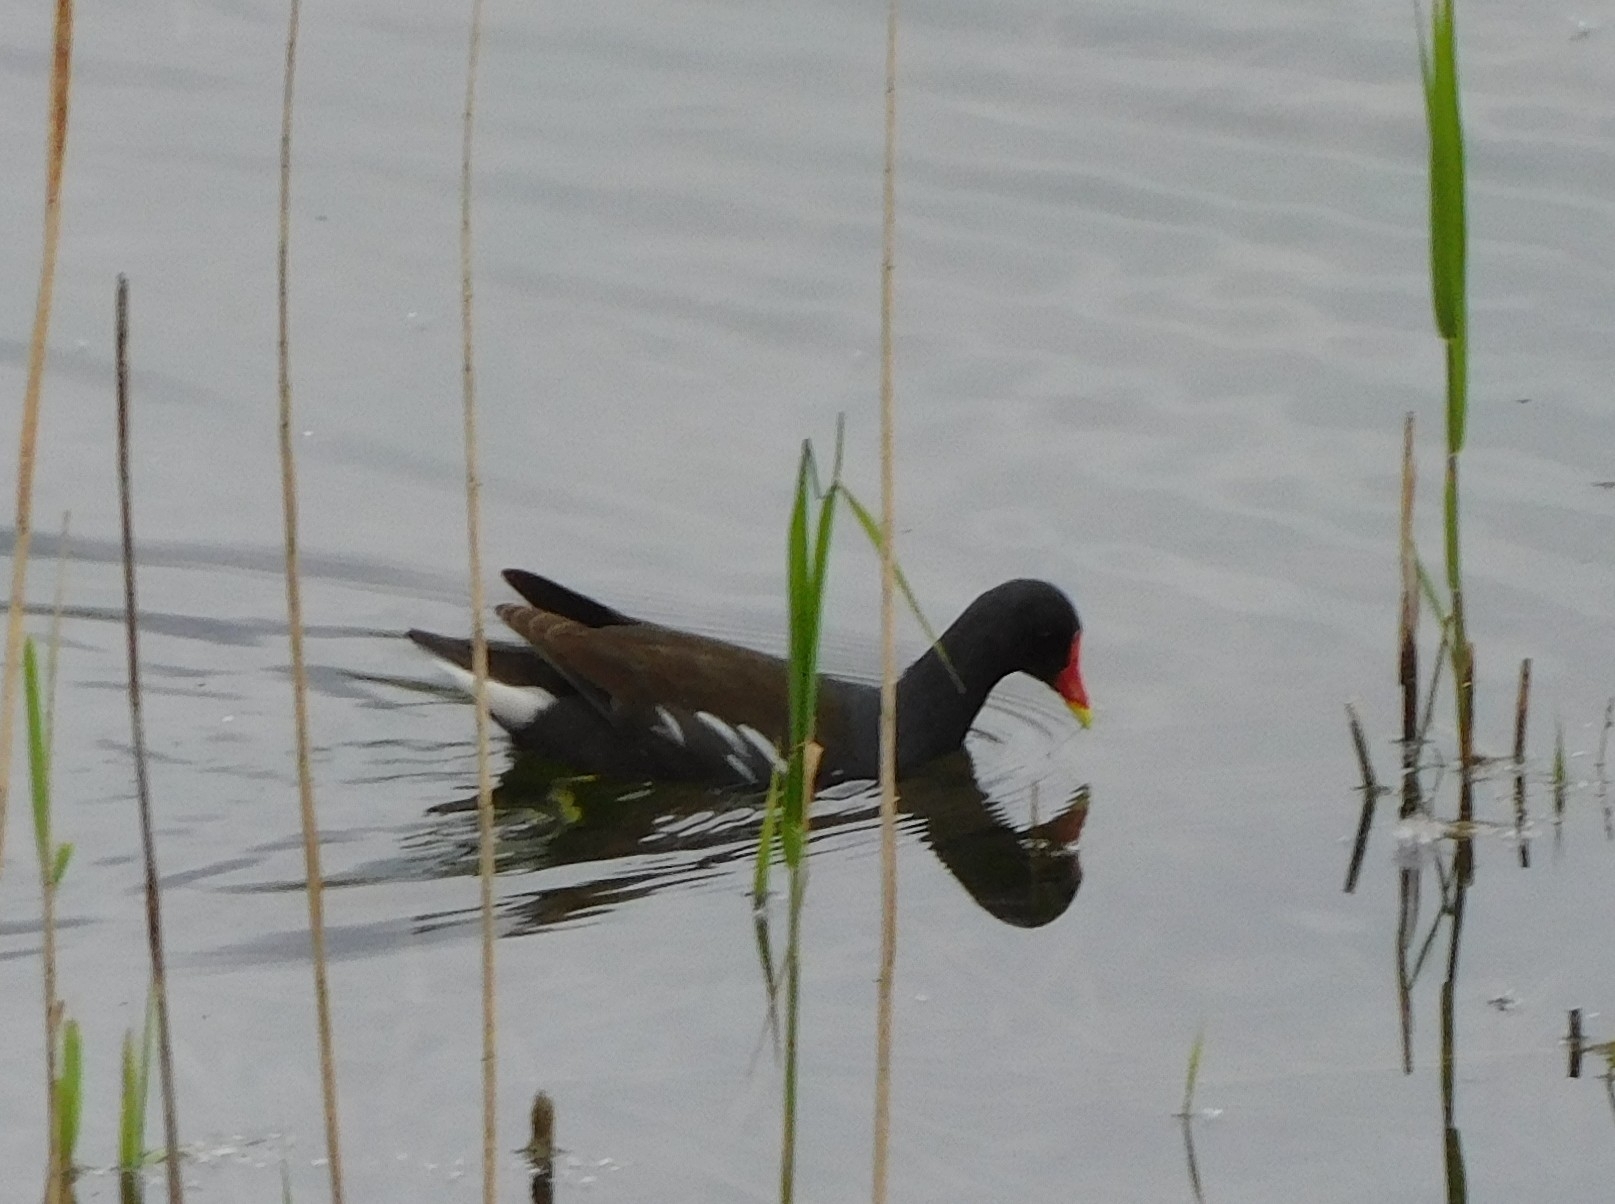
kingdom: Animalia
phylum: Chordata
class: Aves
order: Gruiformes
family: Rallidae
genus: Gallinula
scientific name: Gallinula chloropus
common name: Common moorhen
